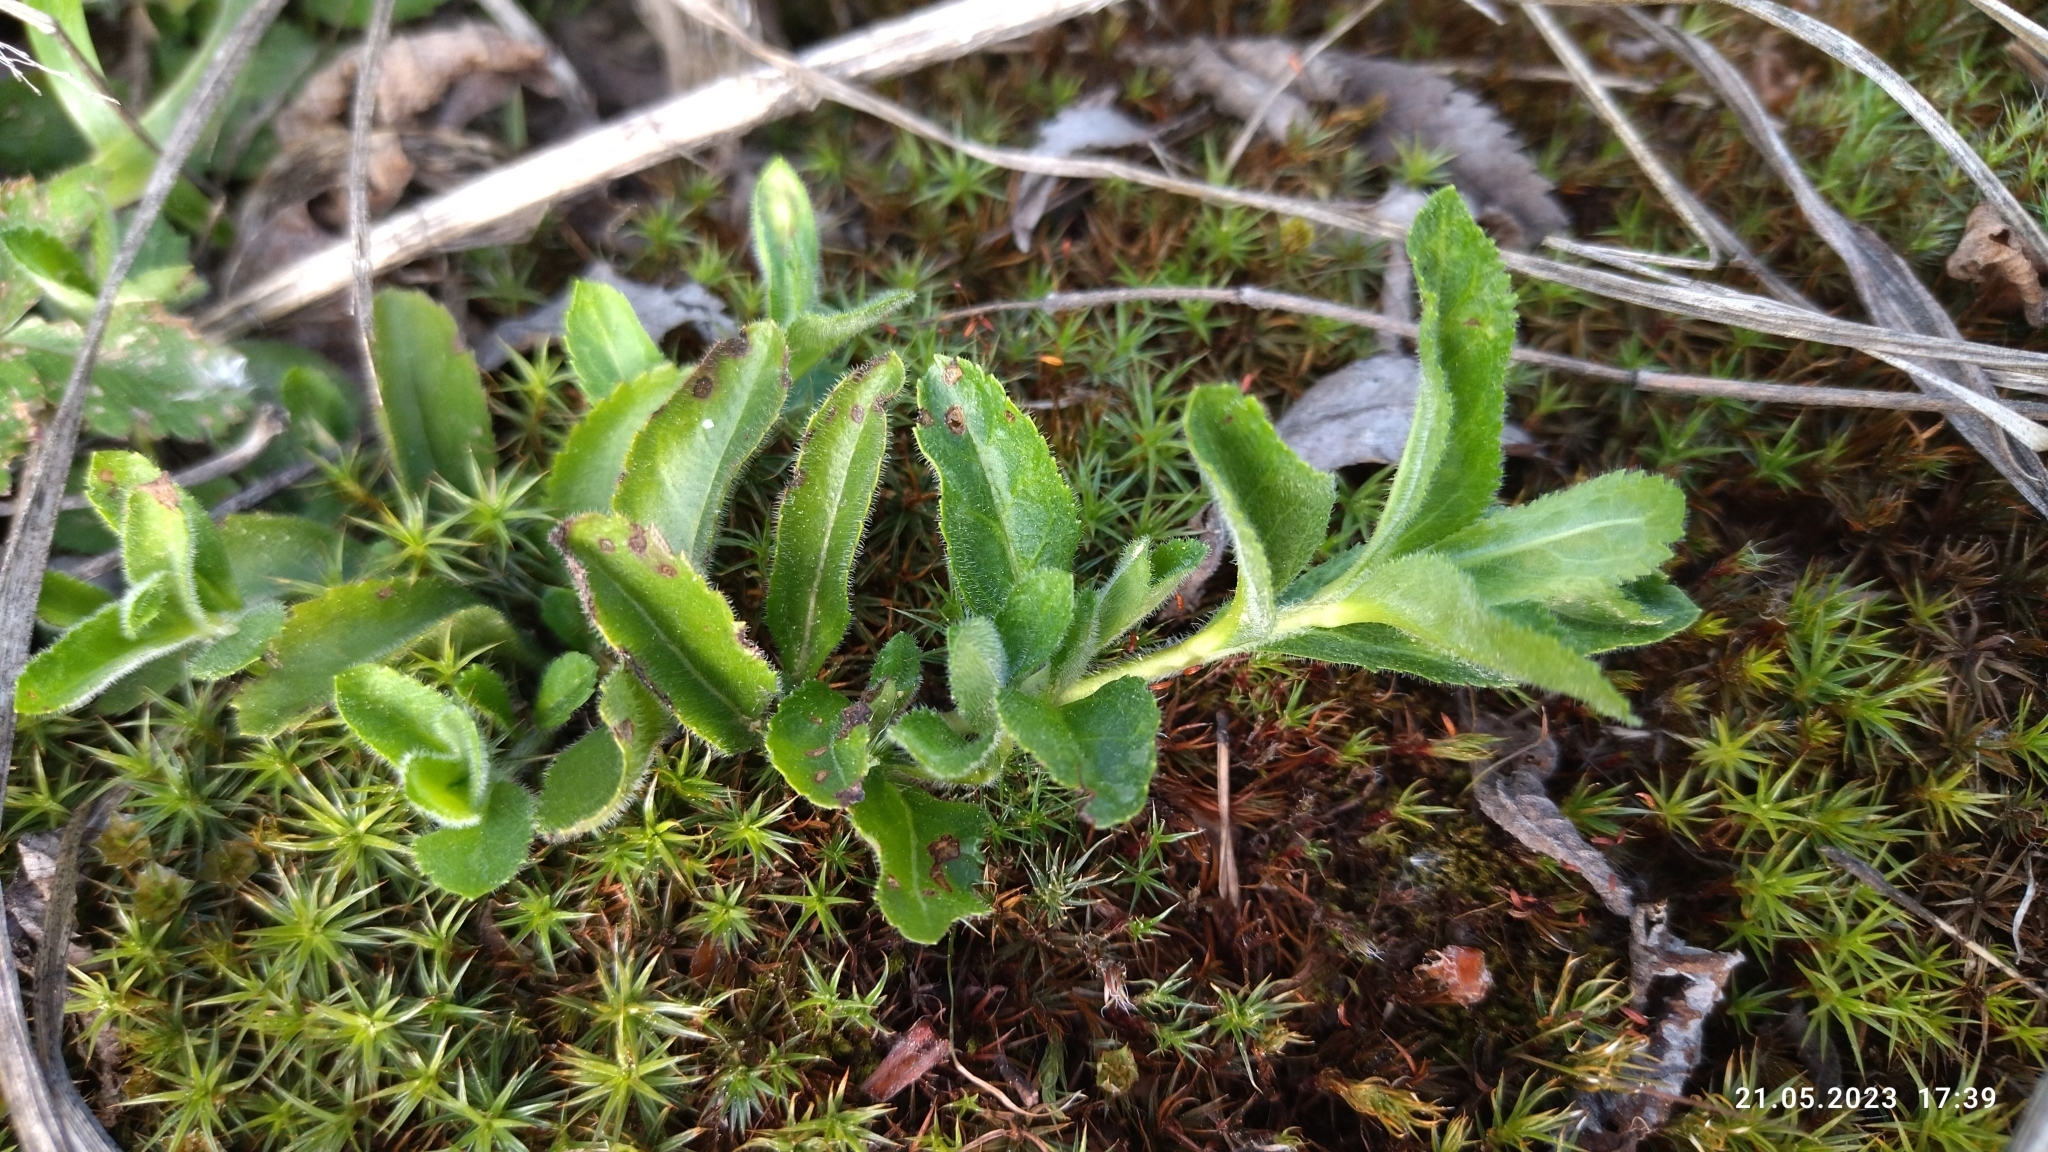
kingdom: Plantae
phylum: Tracheophyta
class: Magnoliopsida
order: Lamiales
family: Plantaginaceae
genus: Veronica
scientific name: Veronica officinalis
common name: Common speedwell
